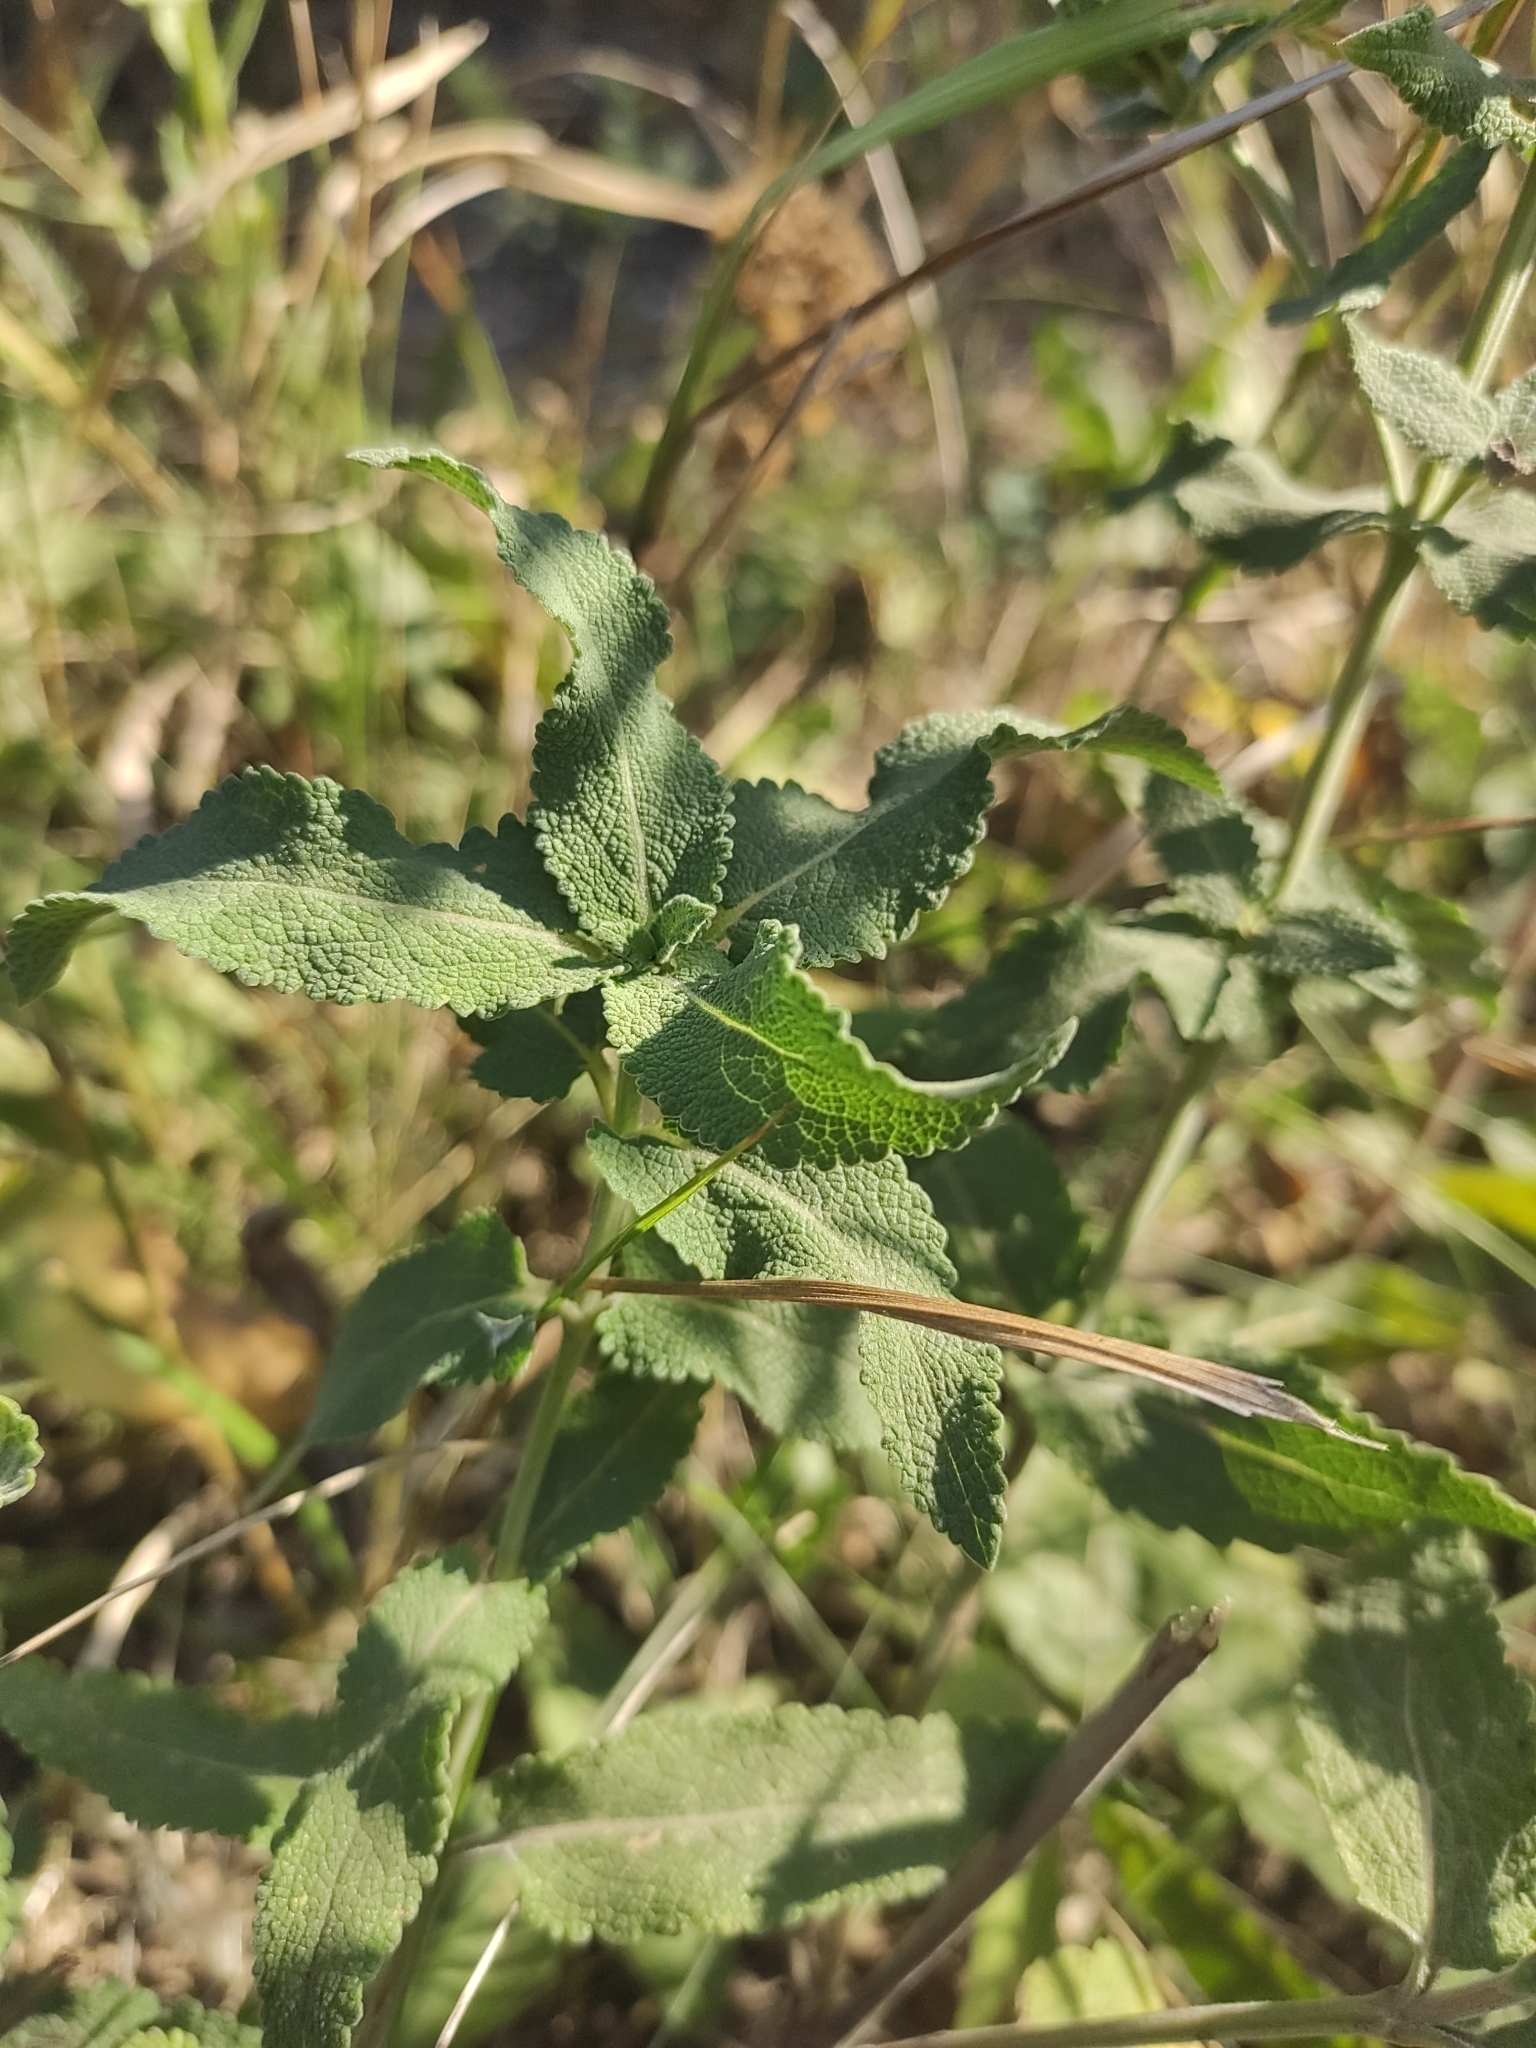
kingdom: Plantae
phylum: Tracheophyta
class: Magnoliopsida
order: Lamiales
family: Lamiaceae
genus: Salvia
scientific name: Salvia nemorosa
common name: Balkan clary
